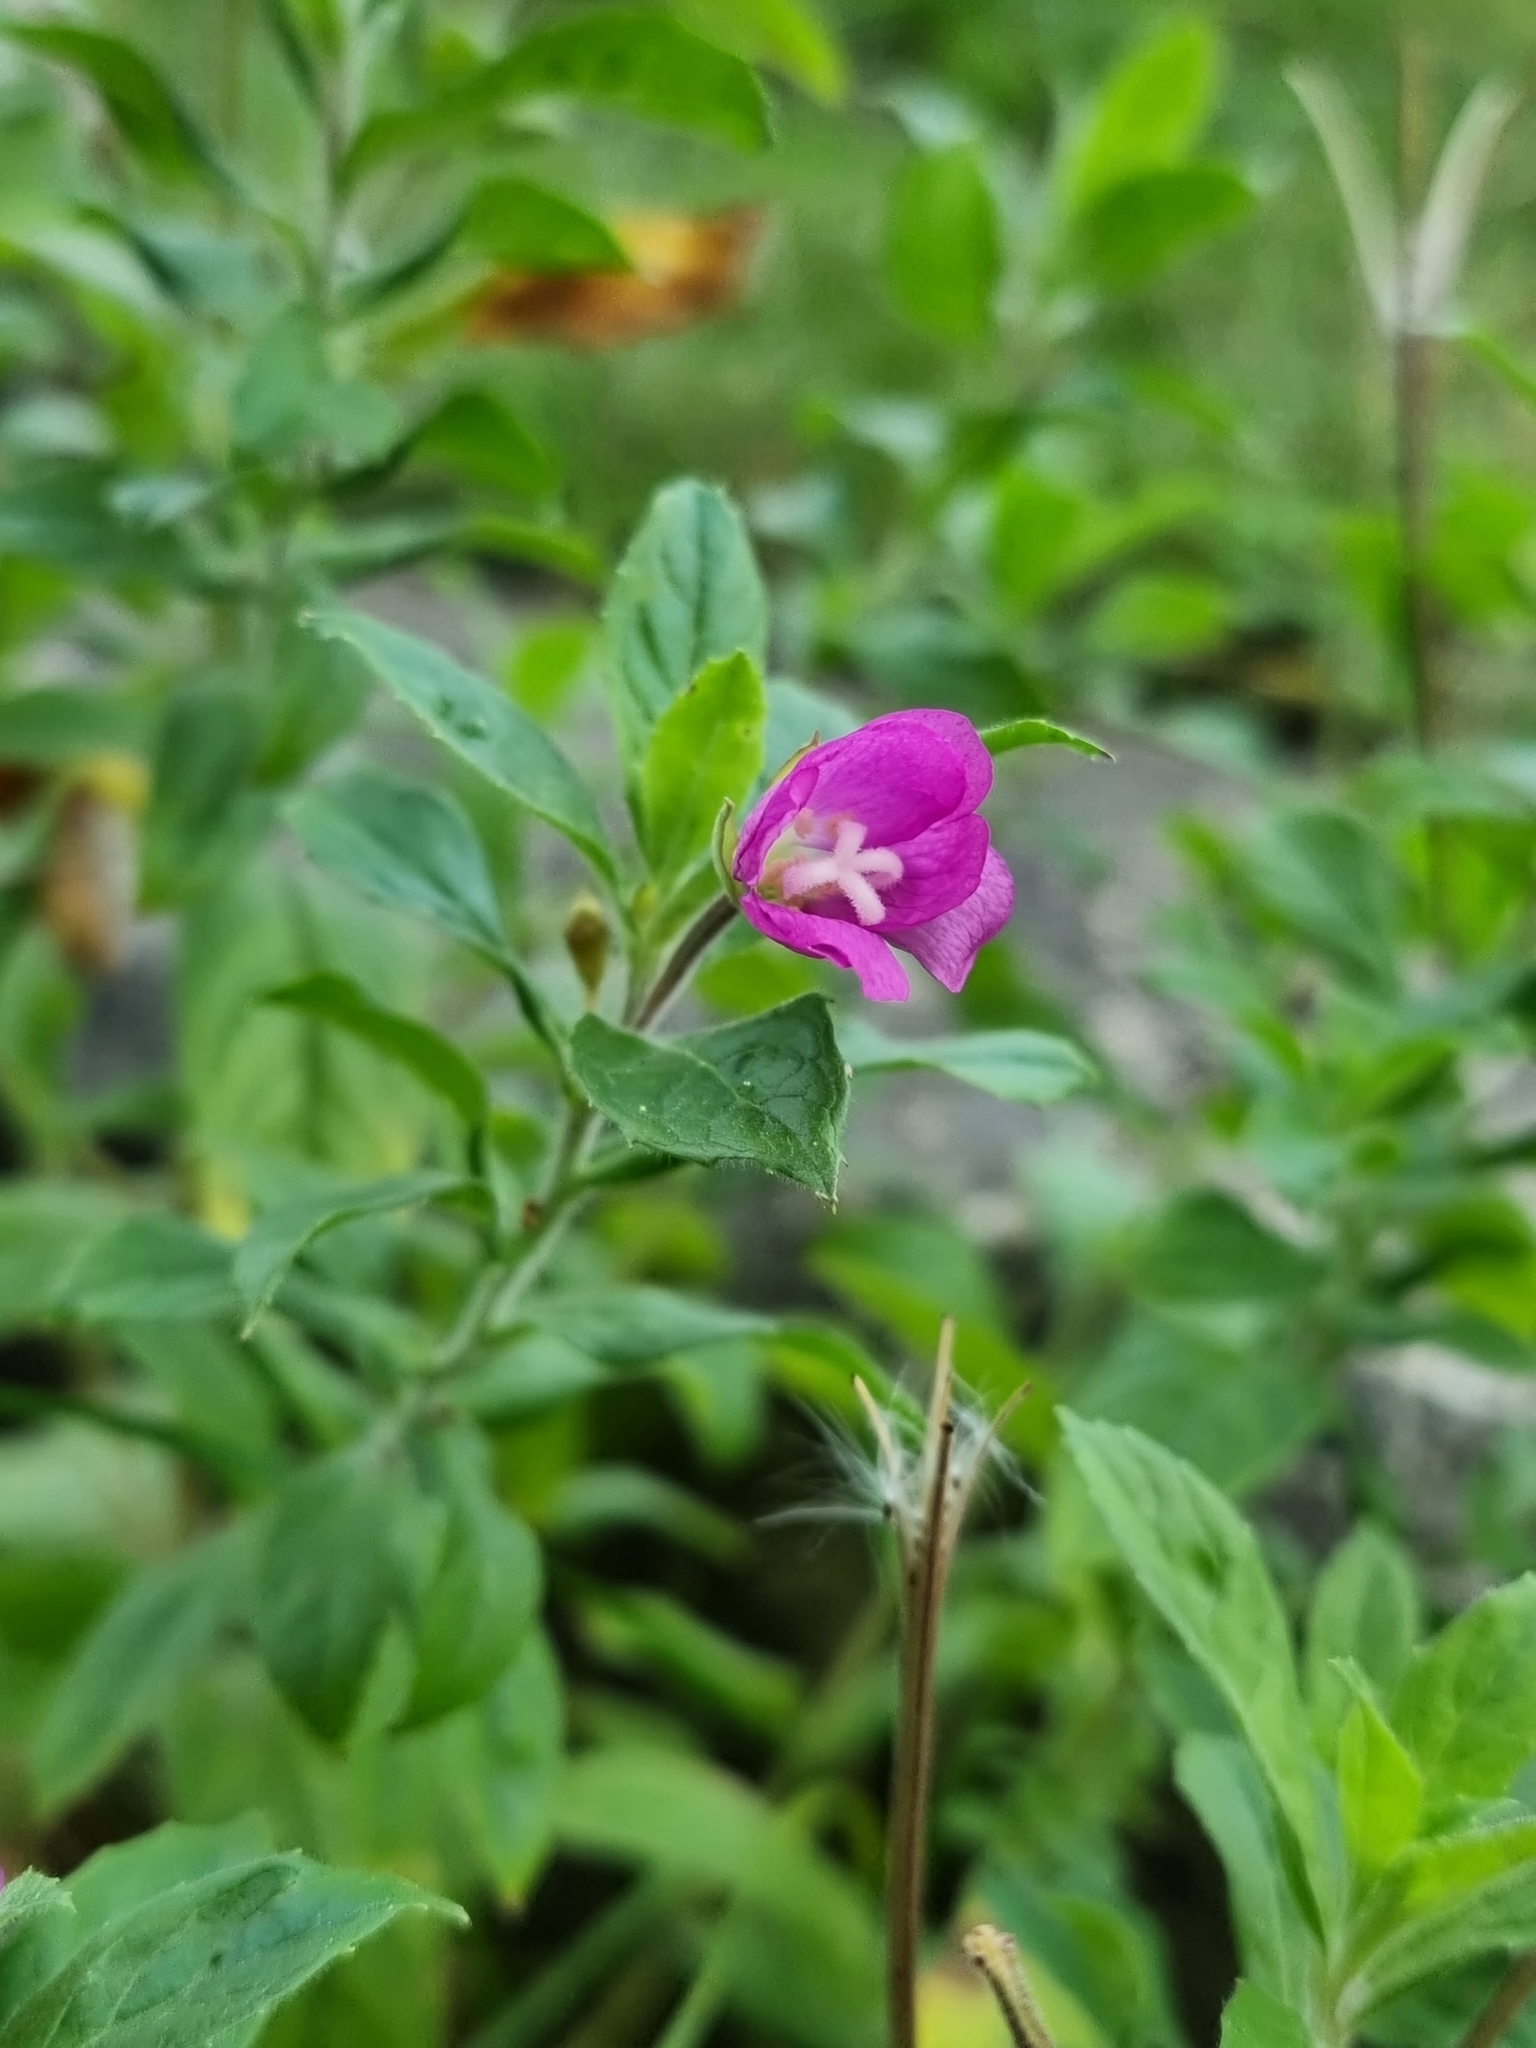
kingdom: Plantae
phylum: Tracheophyta
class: Magnoliopsida
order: Myrtales
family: Onagraceae
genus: Epilobium
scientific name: Epilobium hirsutum
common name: Great willowherb
